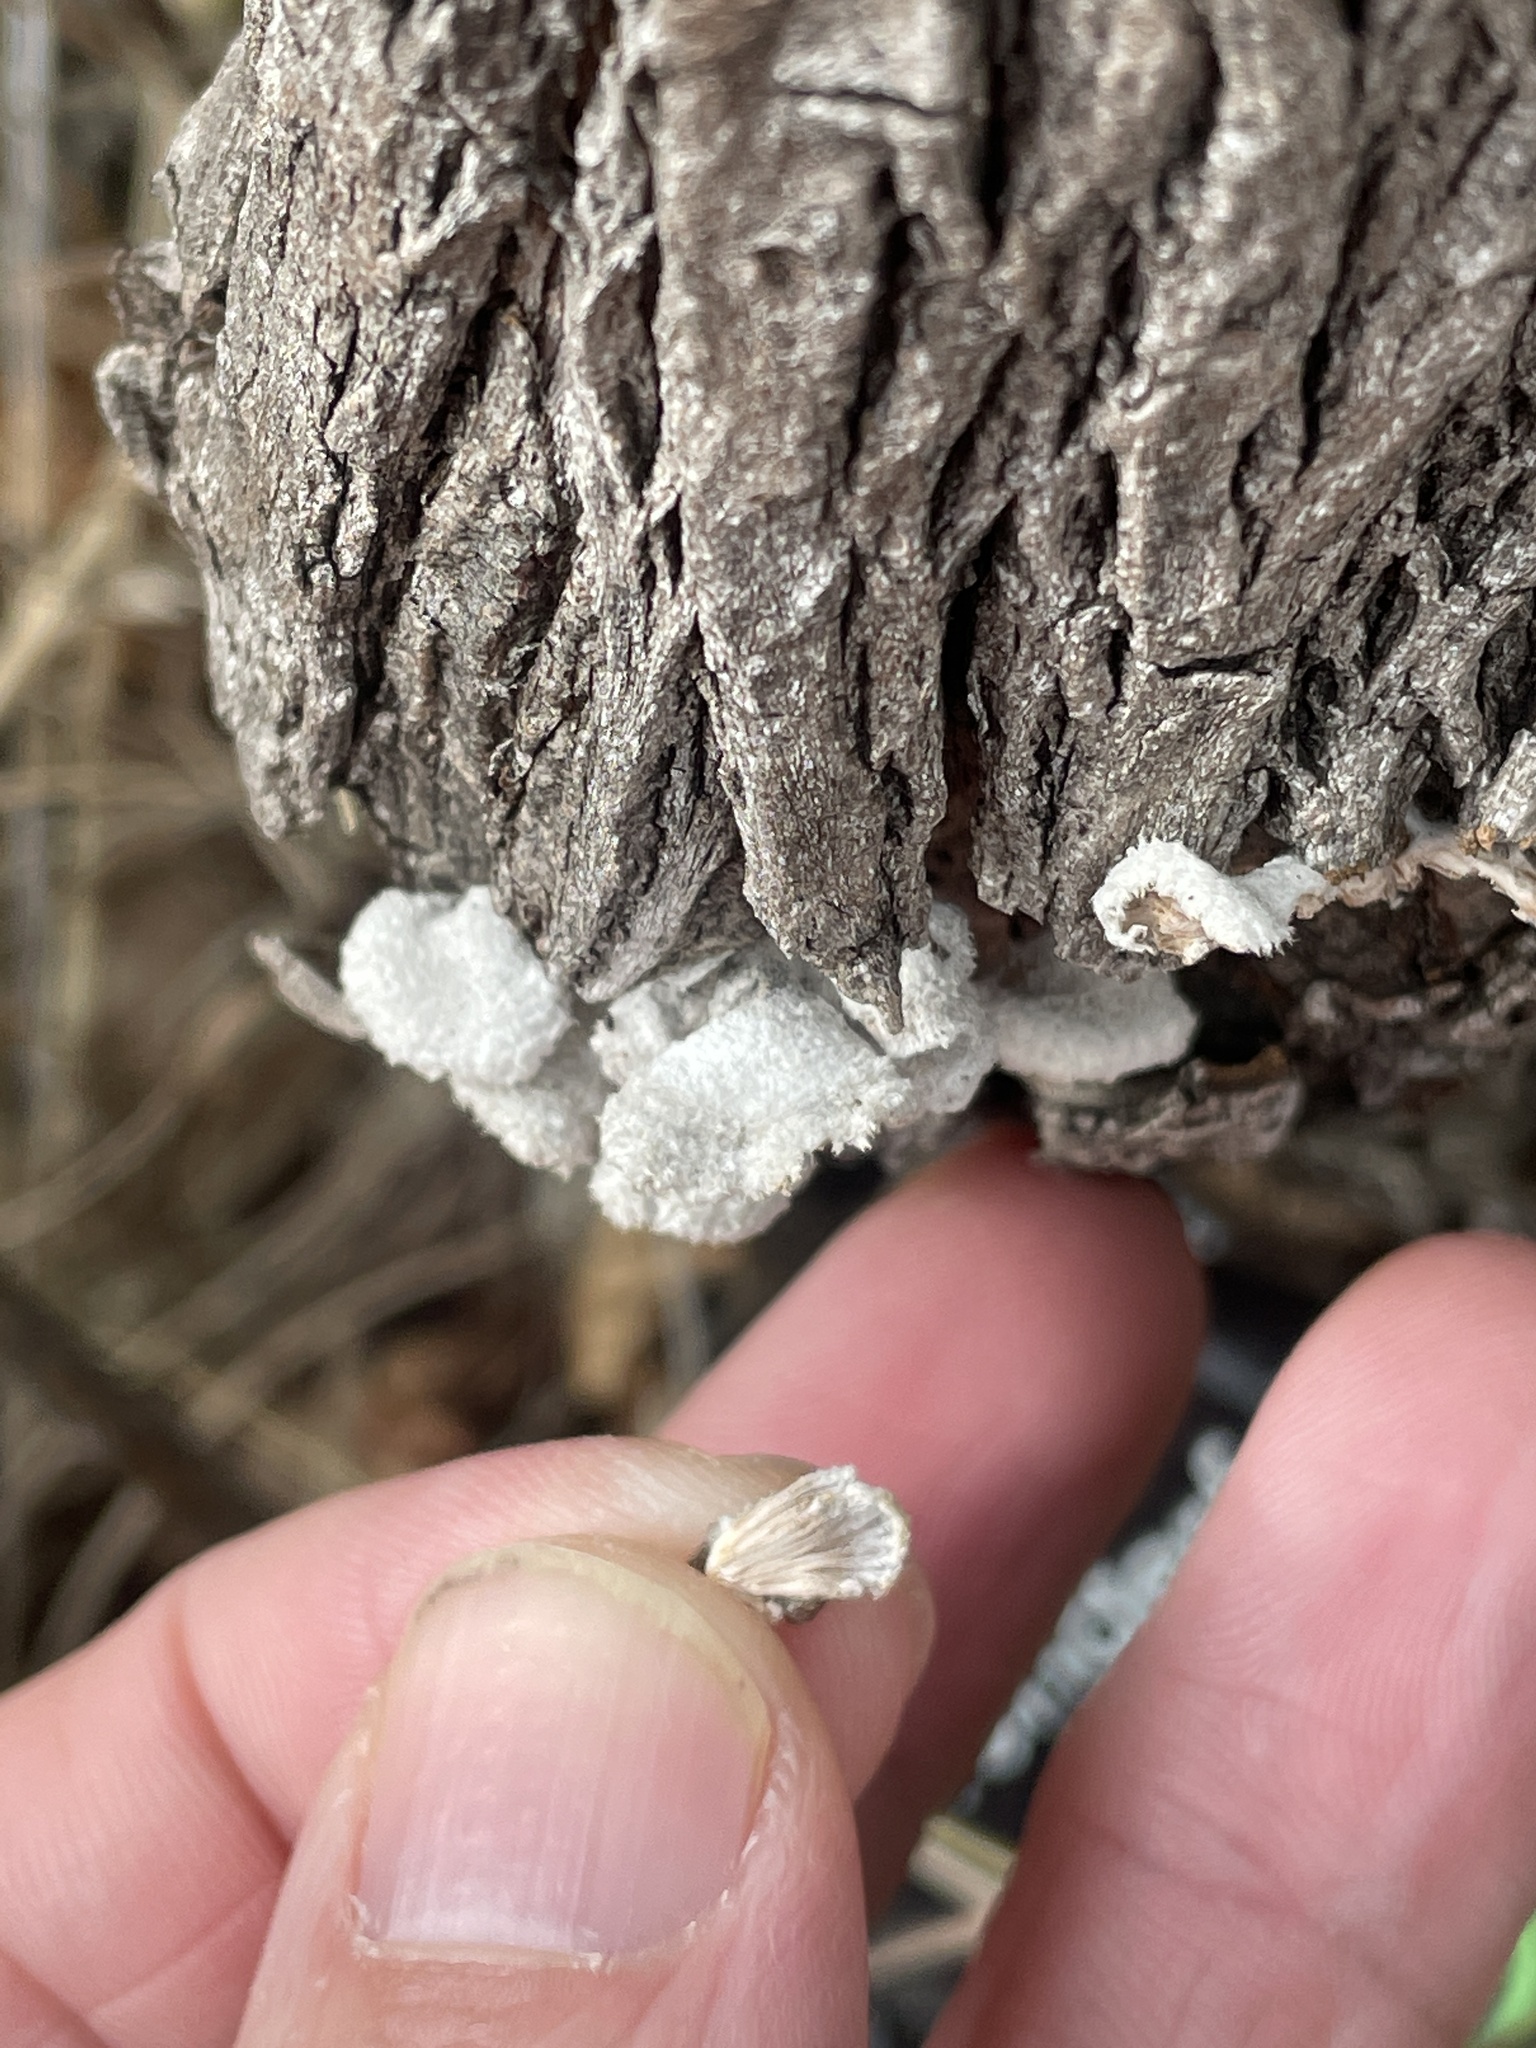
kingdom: Fungi
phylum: Basidiomycota
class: Agaricomycetes
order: Agaricales
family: Schizophyllaceae
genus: Schizophyllum
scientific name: Schizophyllum commune
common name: Common porecrust
